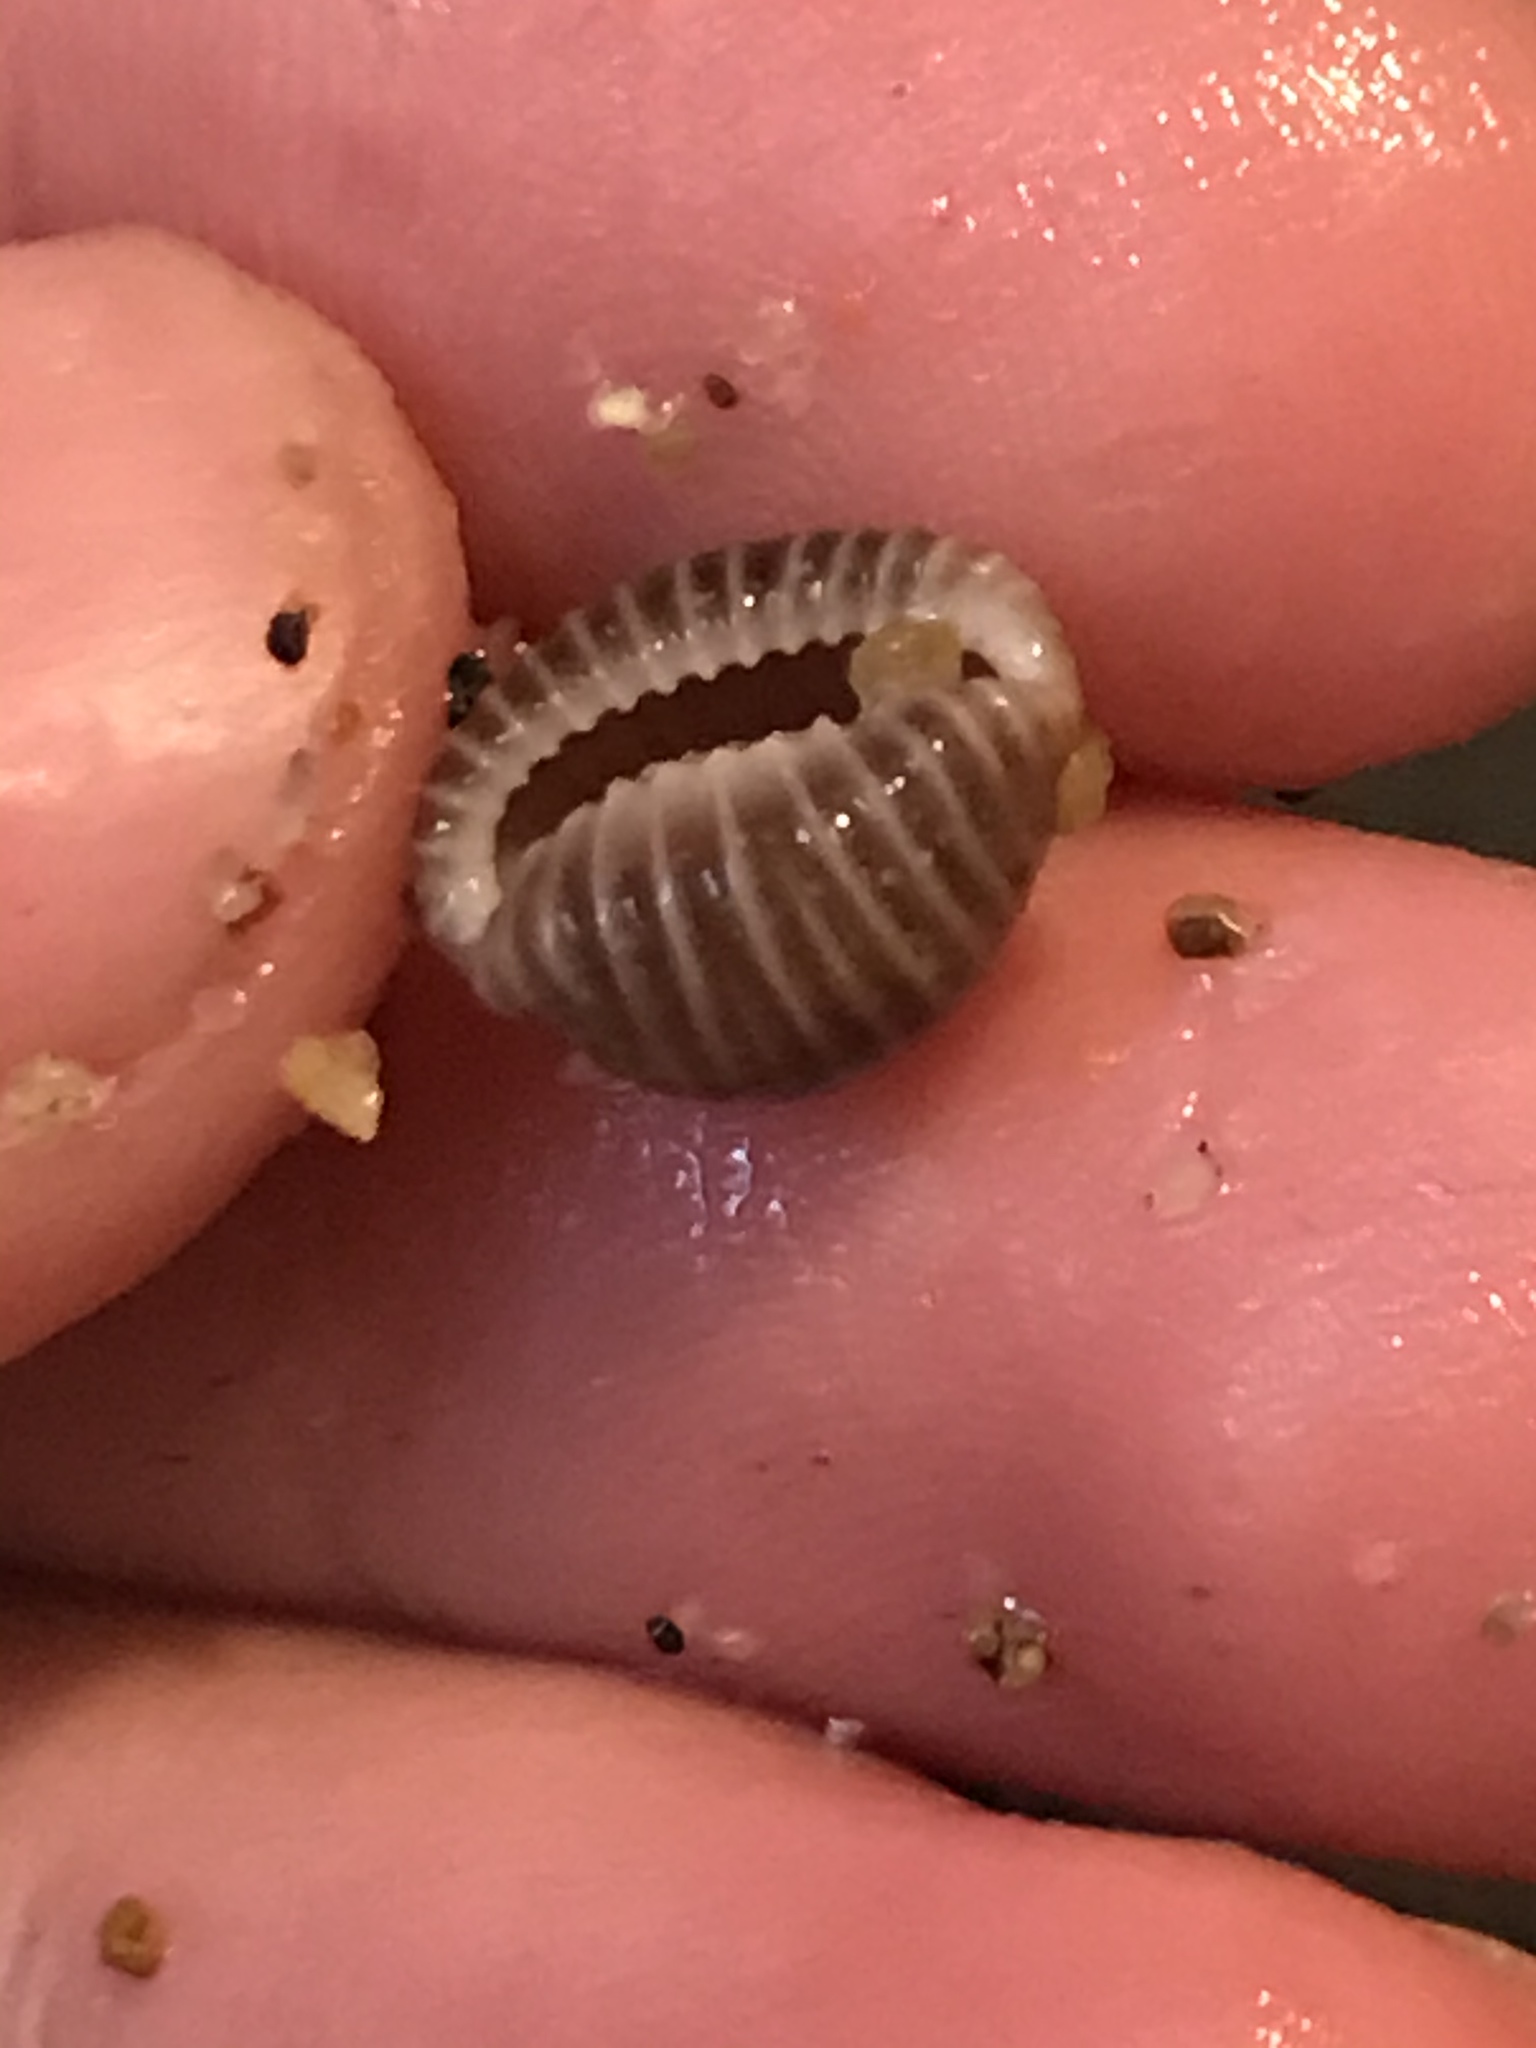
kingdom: Animalia
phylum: Mollusca
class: Gastropoda
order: Littorinimorpha
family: Triviidae
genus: Pseudopusula
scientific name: Pseudopusula californiana
